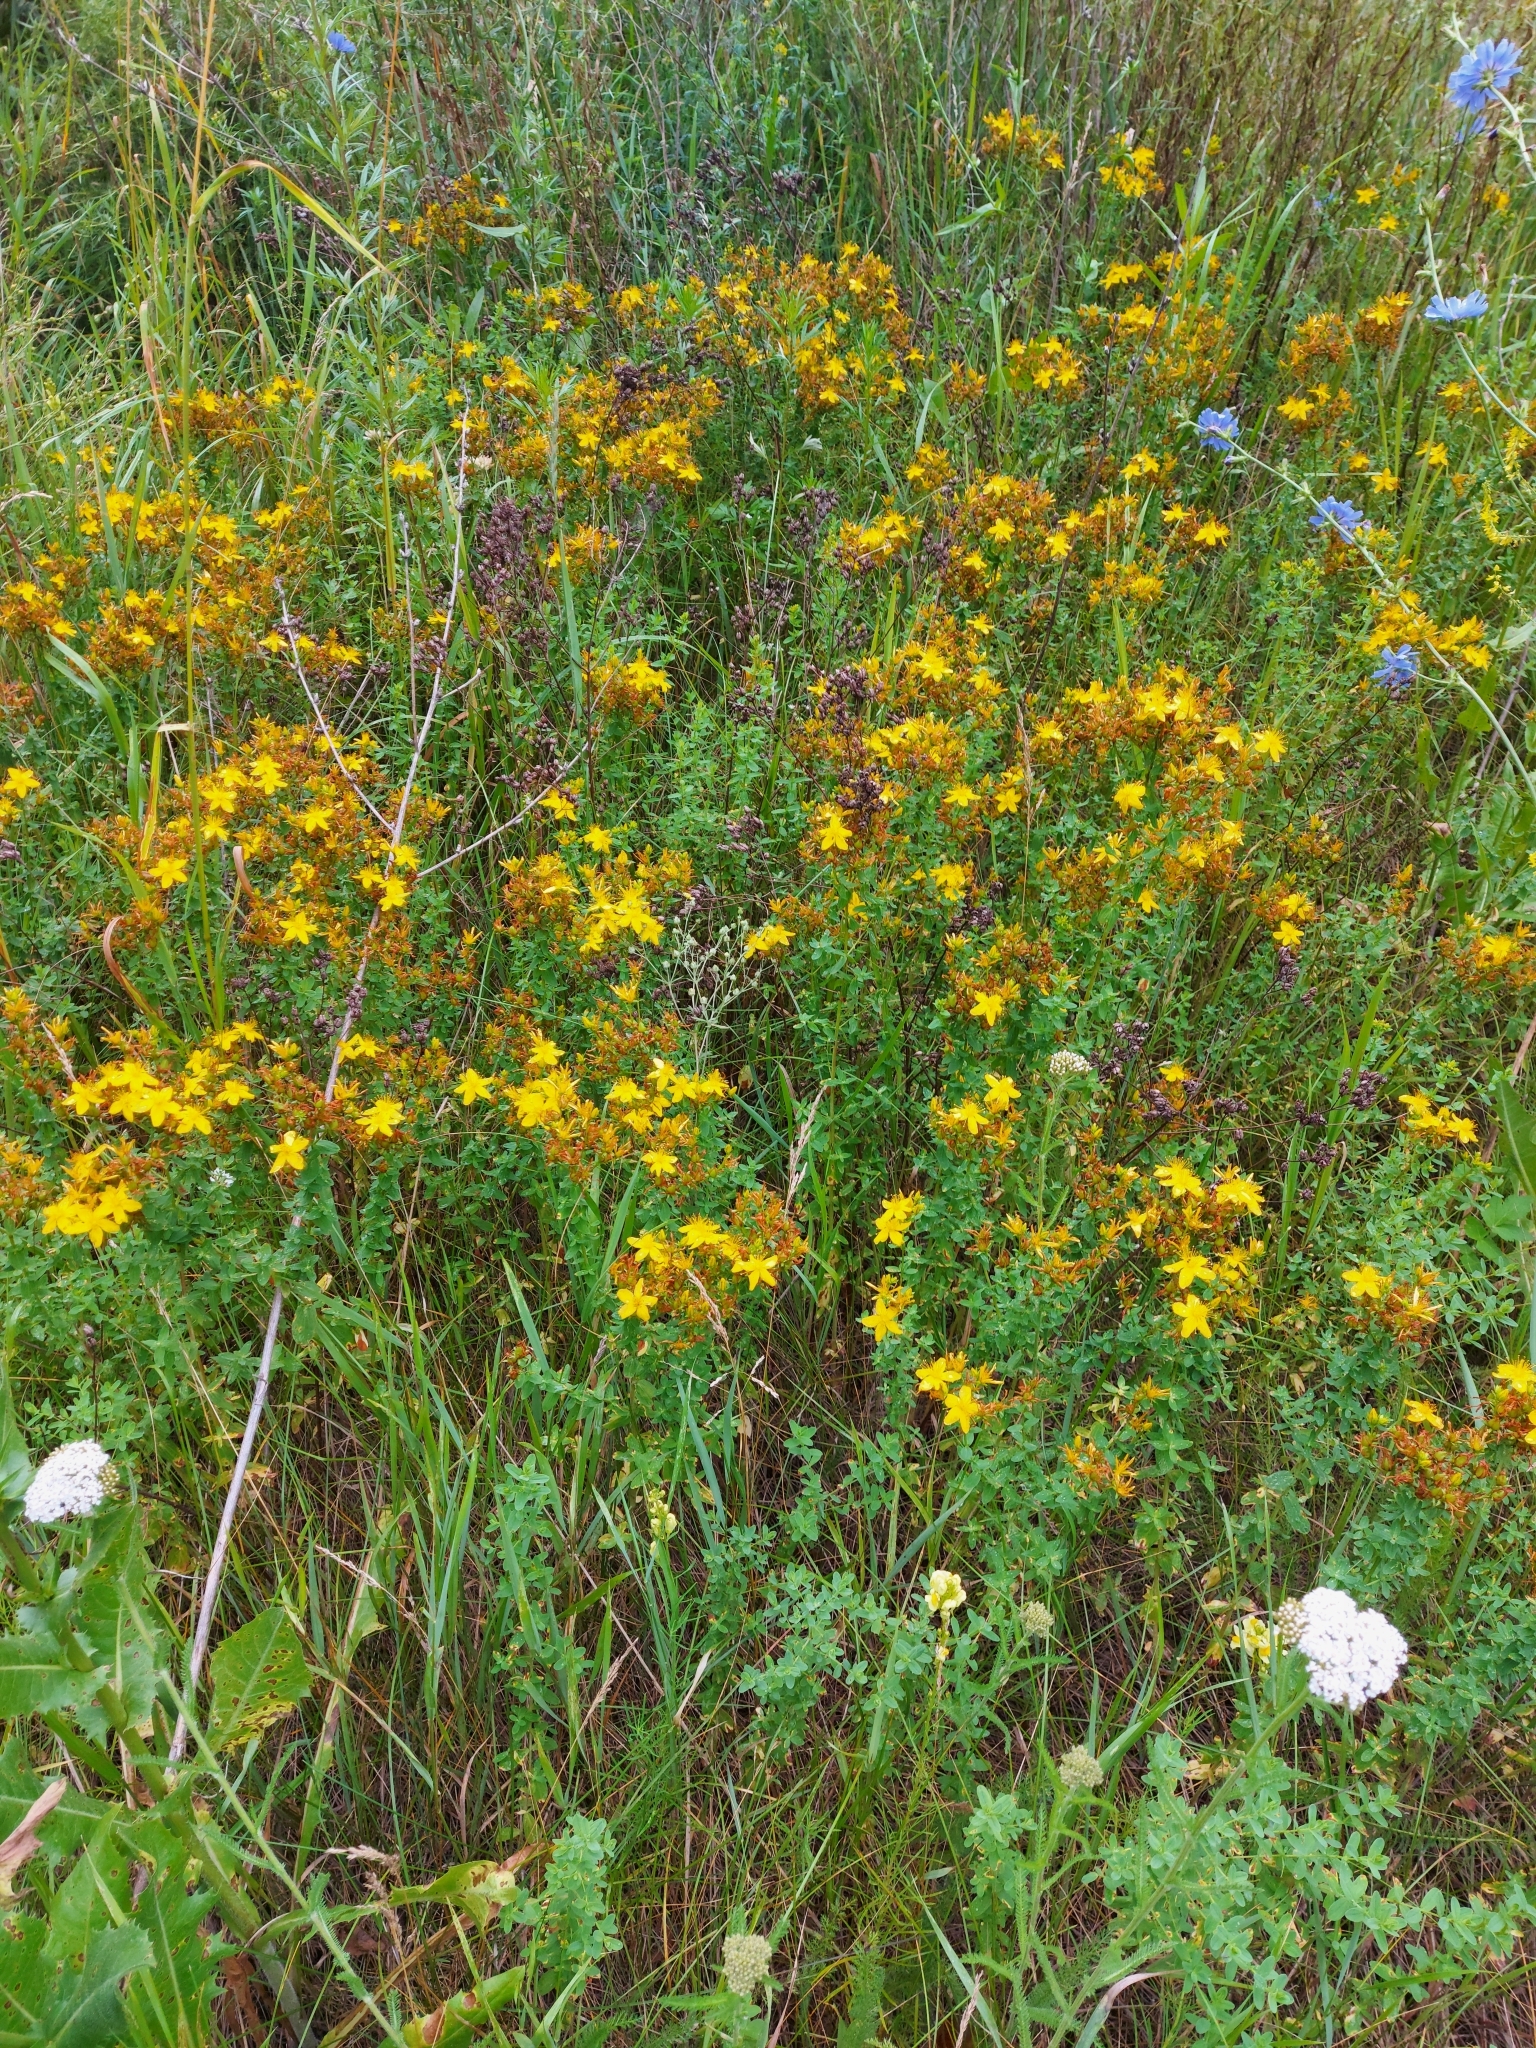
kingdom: Plantae
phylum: Tracheophyta
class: Magnoliopsida
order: Malpighiales
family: Hypericaceae
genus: Hypericum
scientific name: Hypericum perforatum
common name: Common st. johnswort
